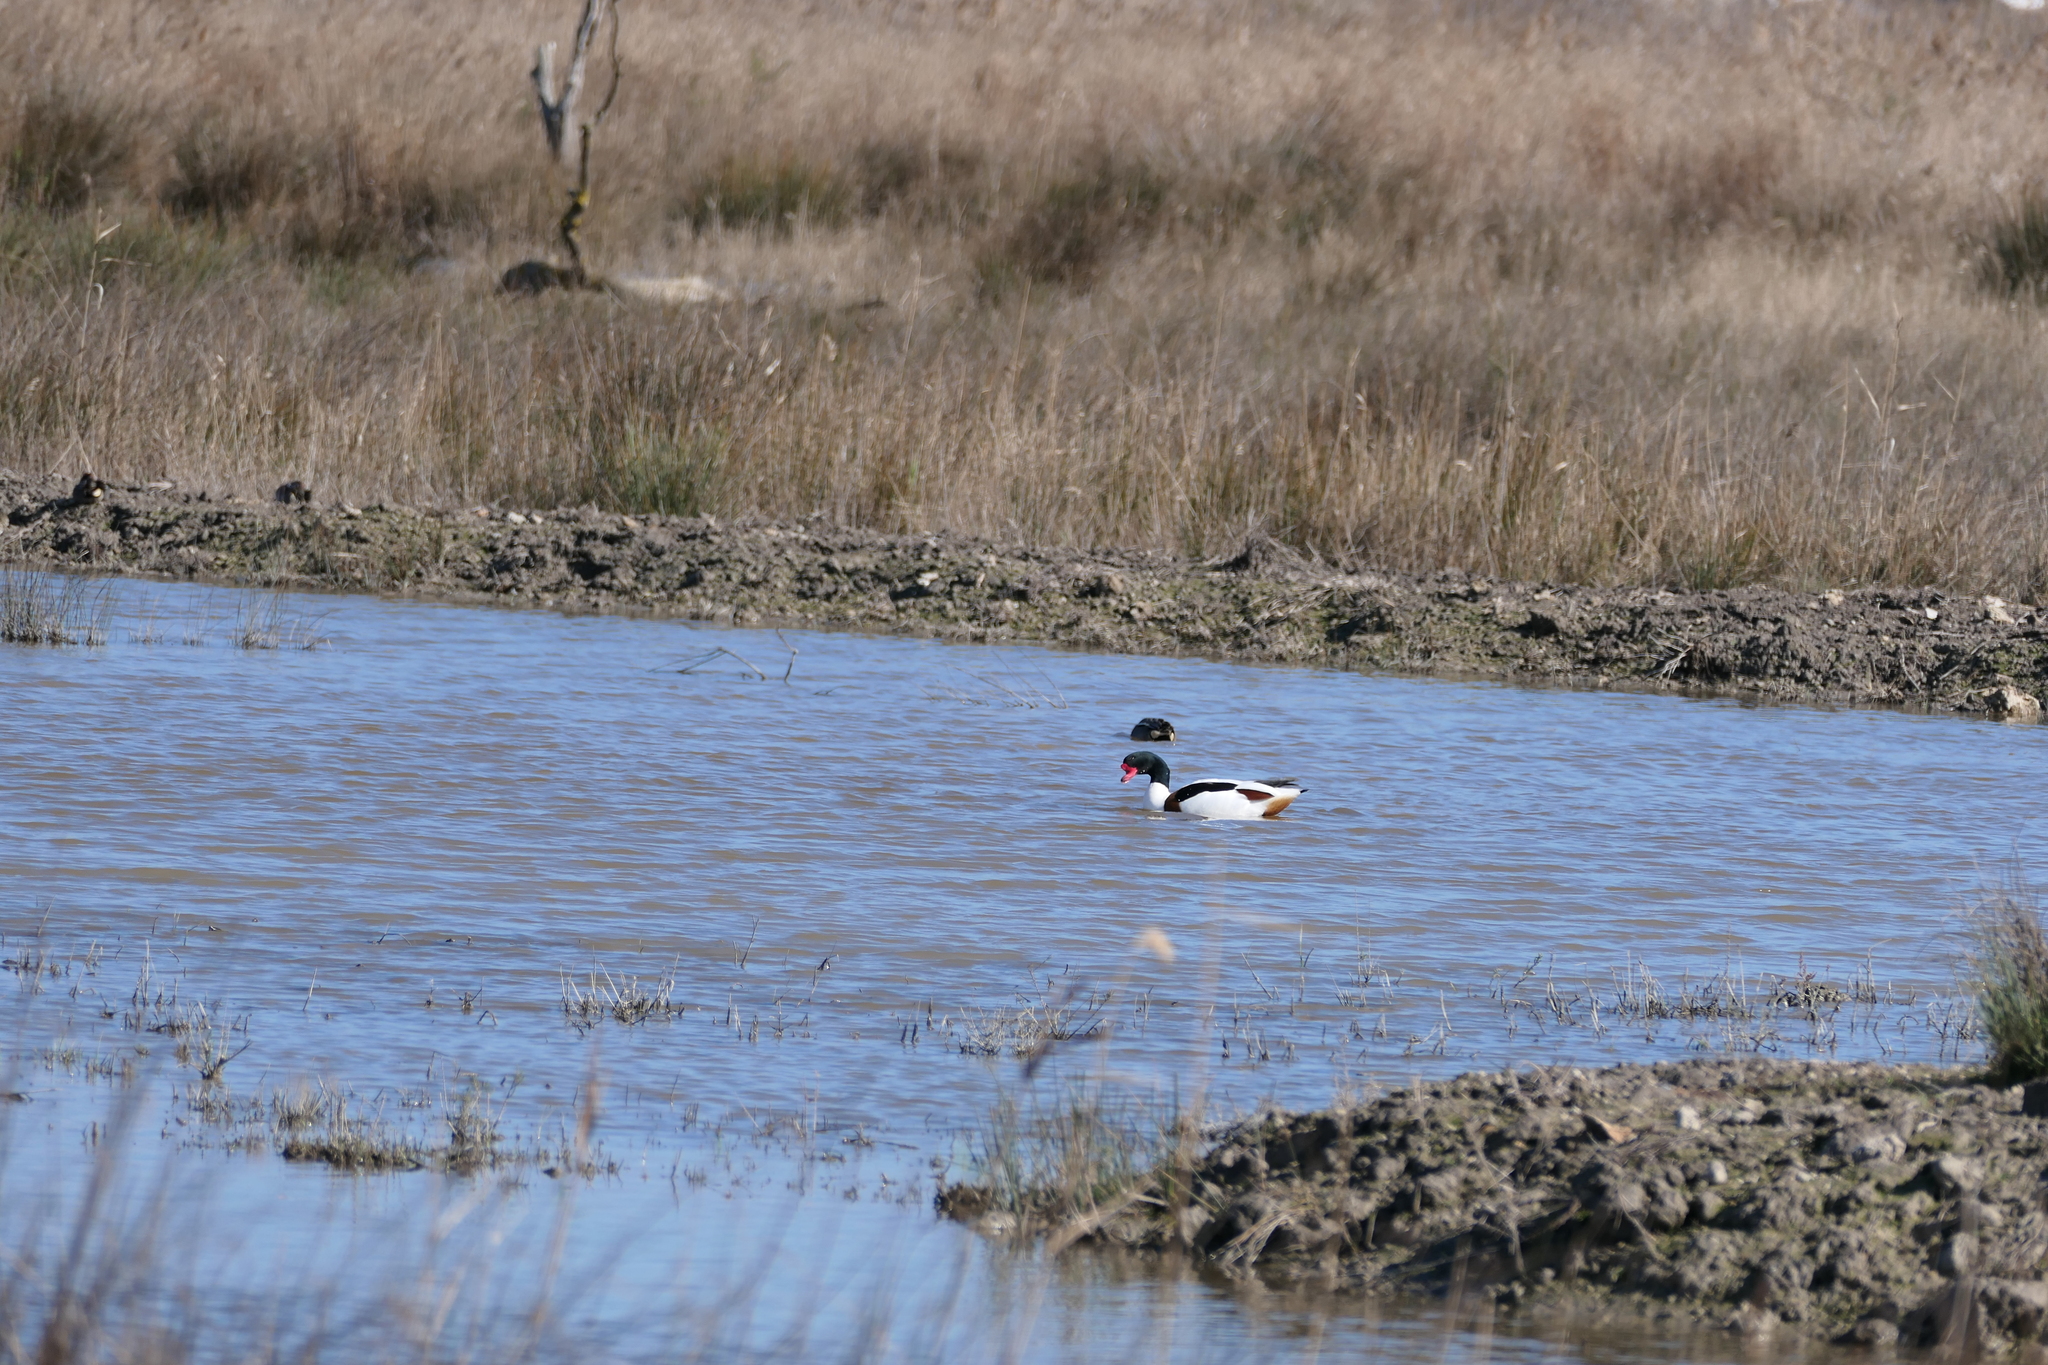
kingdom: Animalia
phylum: Chordata
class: Aves
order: Anseriformes
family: Anatidae
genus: Tadorna
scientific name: Tadorna tadorna
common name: Common shelduck
